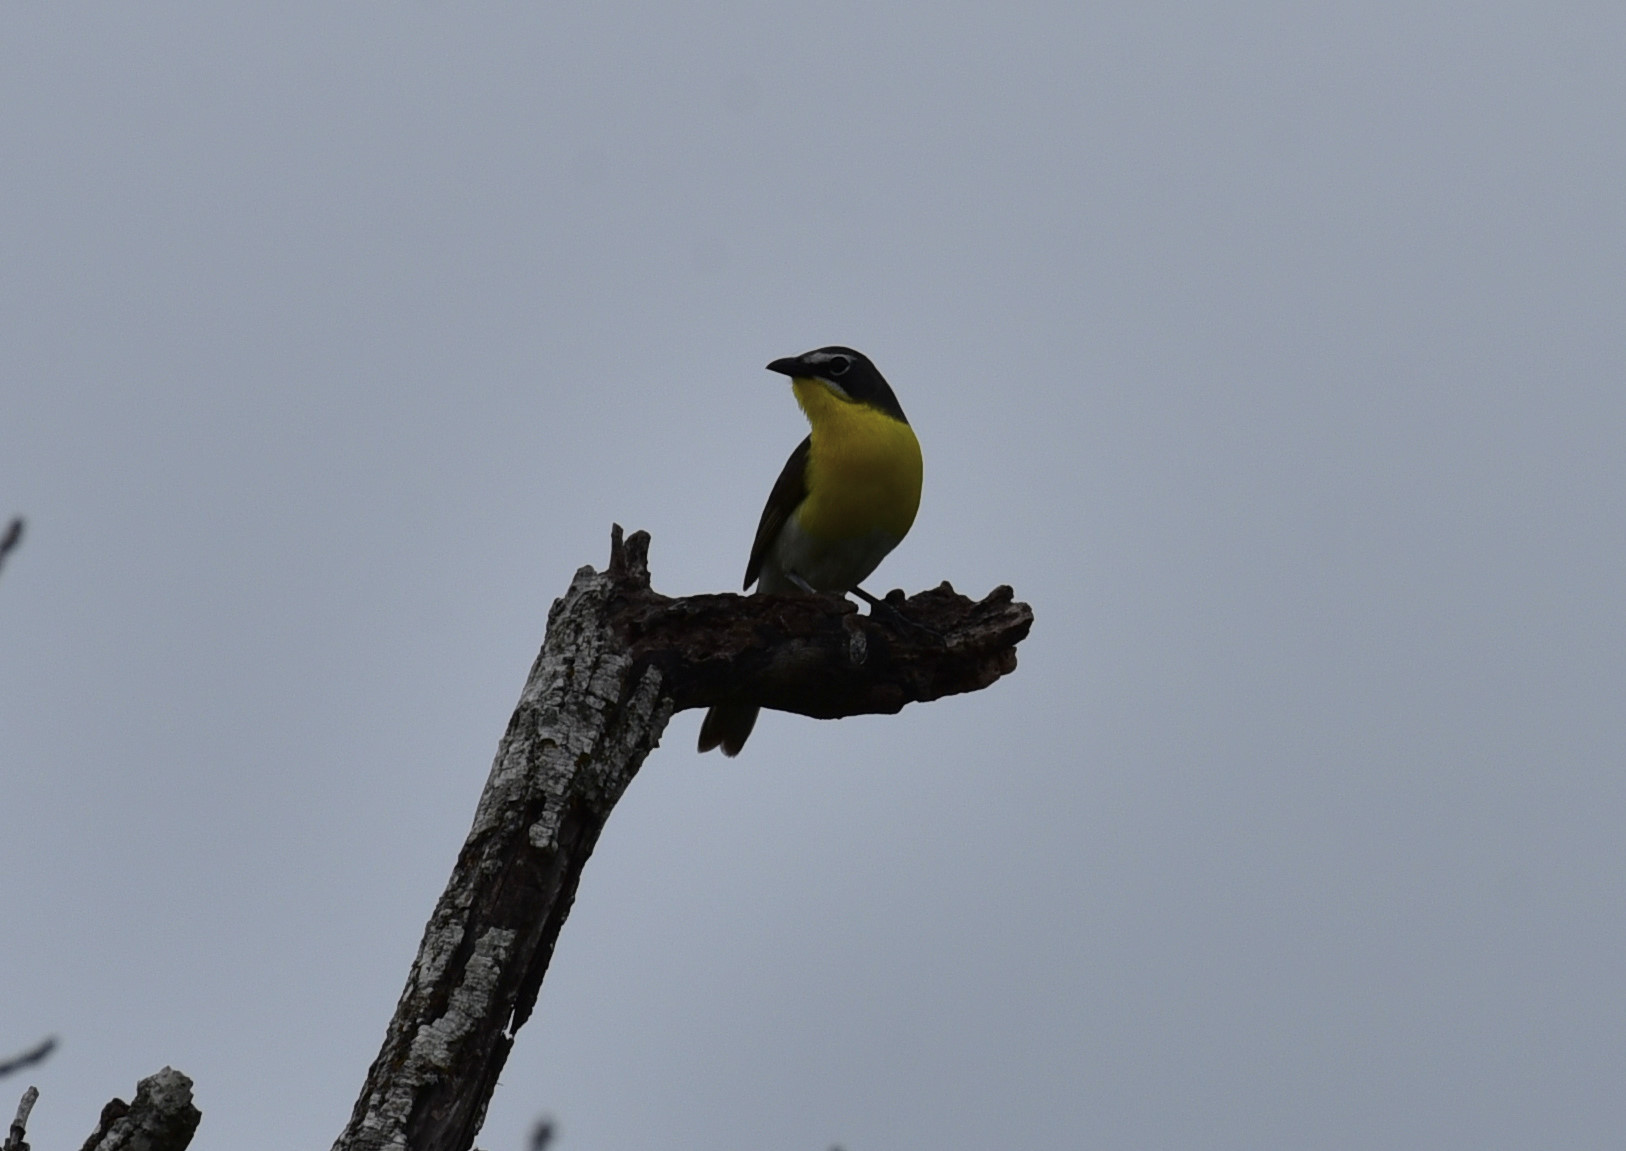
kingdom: Animalia
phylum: Chordata
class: Aves
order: Passeriformes
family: Parulidae
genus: Icteria
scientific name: Icteria virens
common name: Yellow-breasted chat
